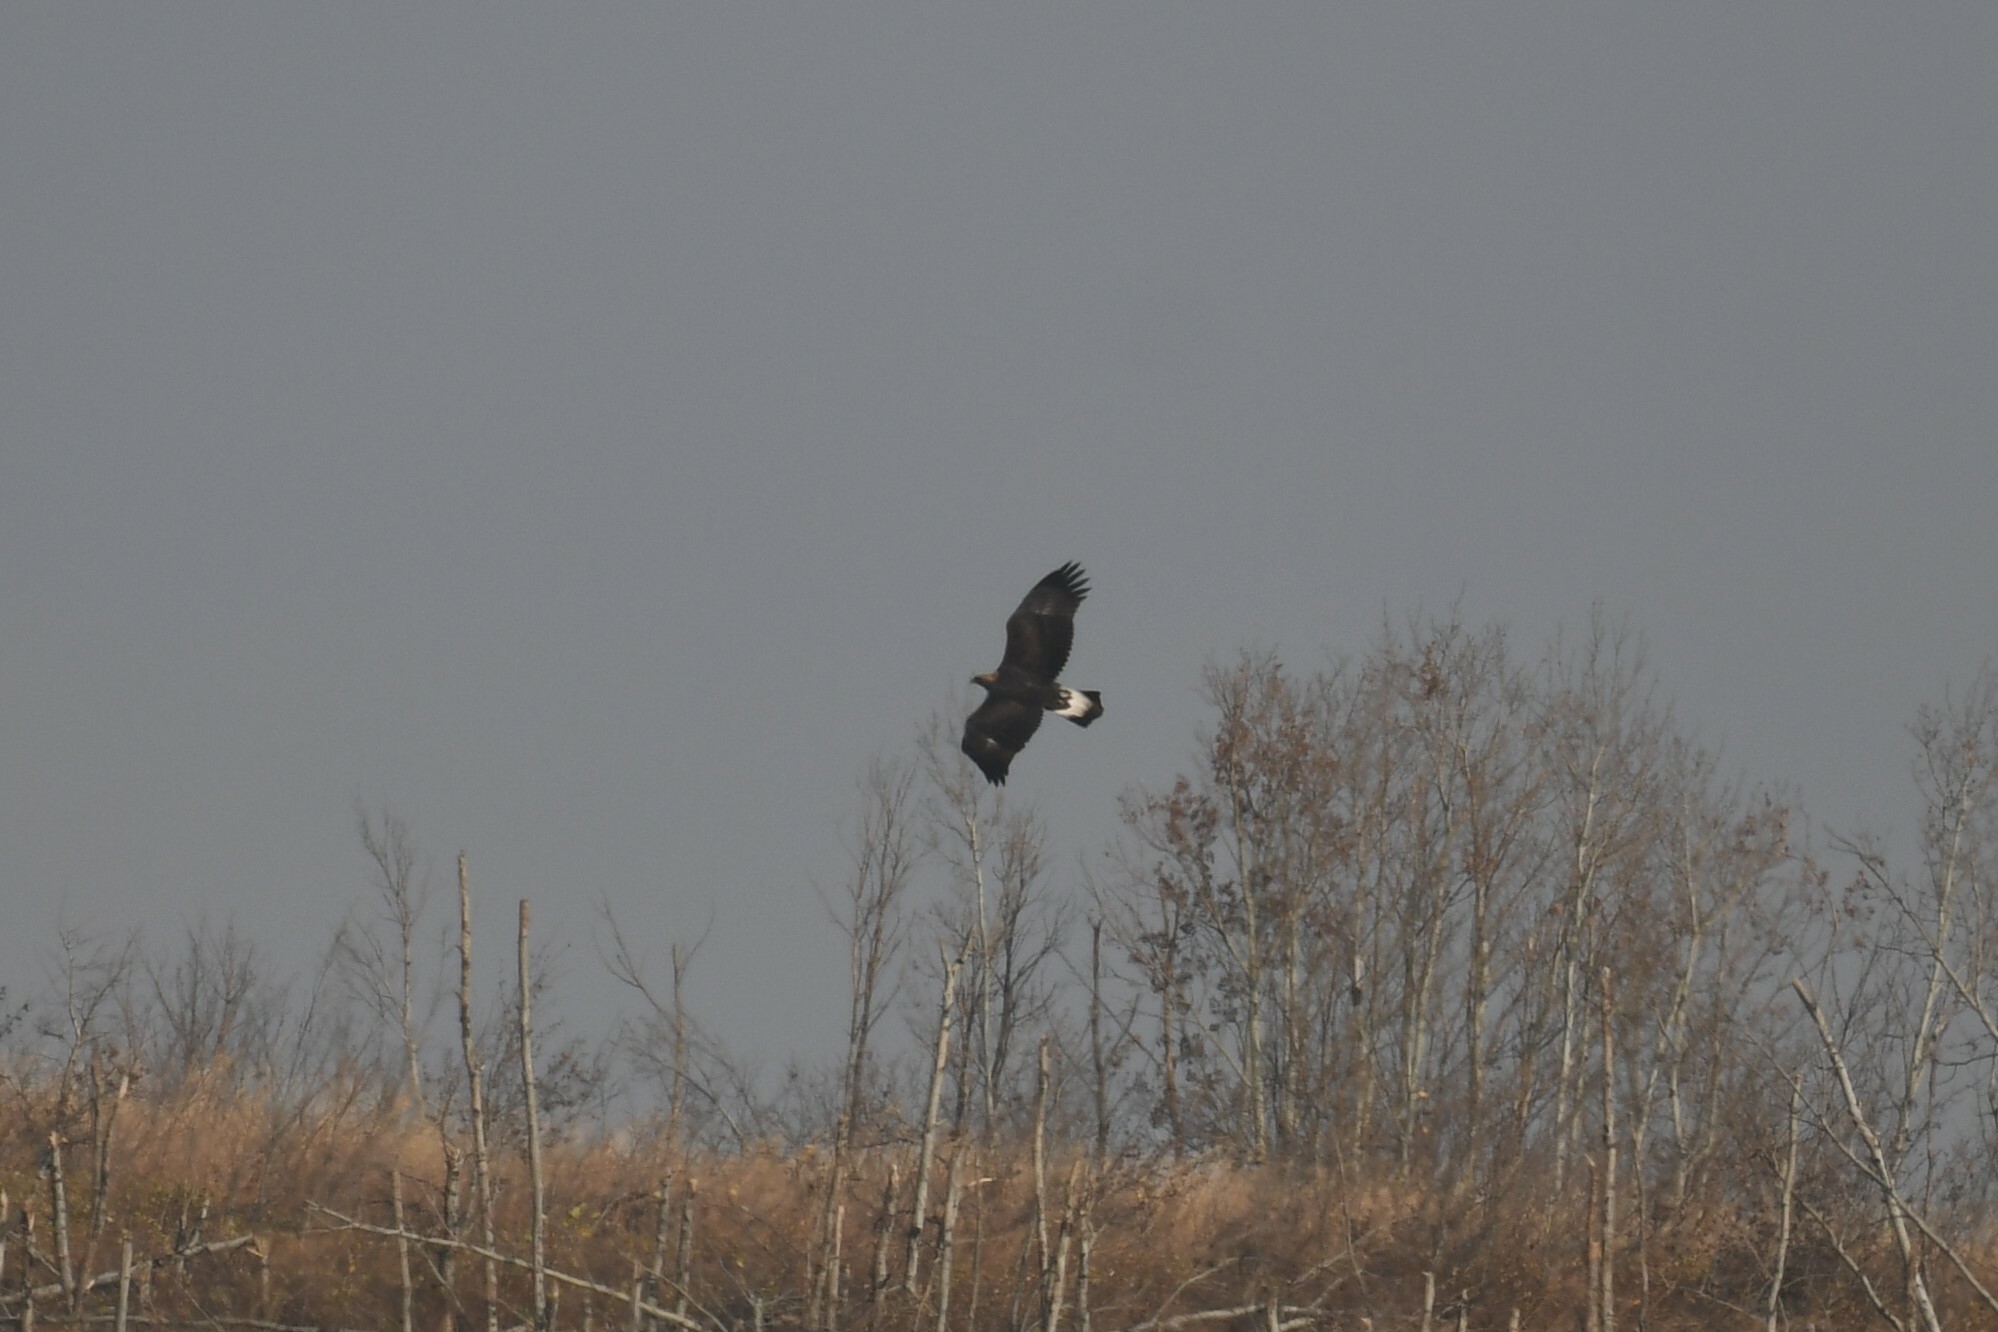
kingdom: Animalia
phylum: Chordata
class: Aves
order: Accipitriformes
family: Accipitridae
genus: Aquila
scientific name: Aquila chrysaetos
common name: Golden eagle
